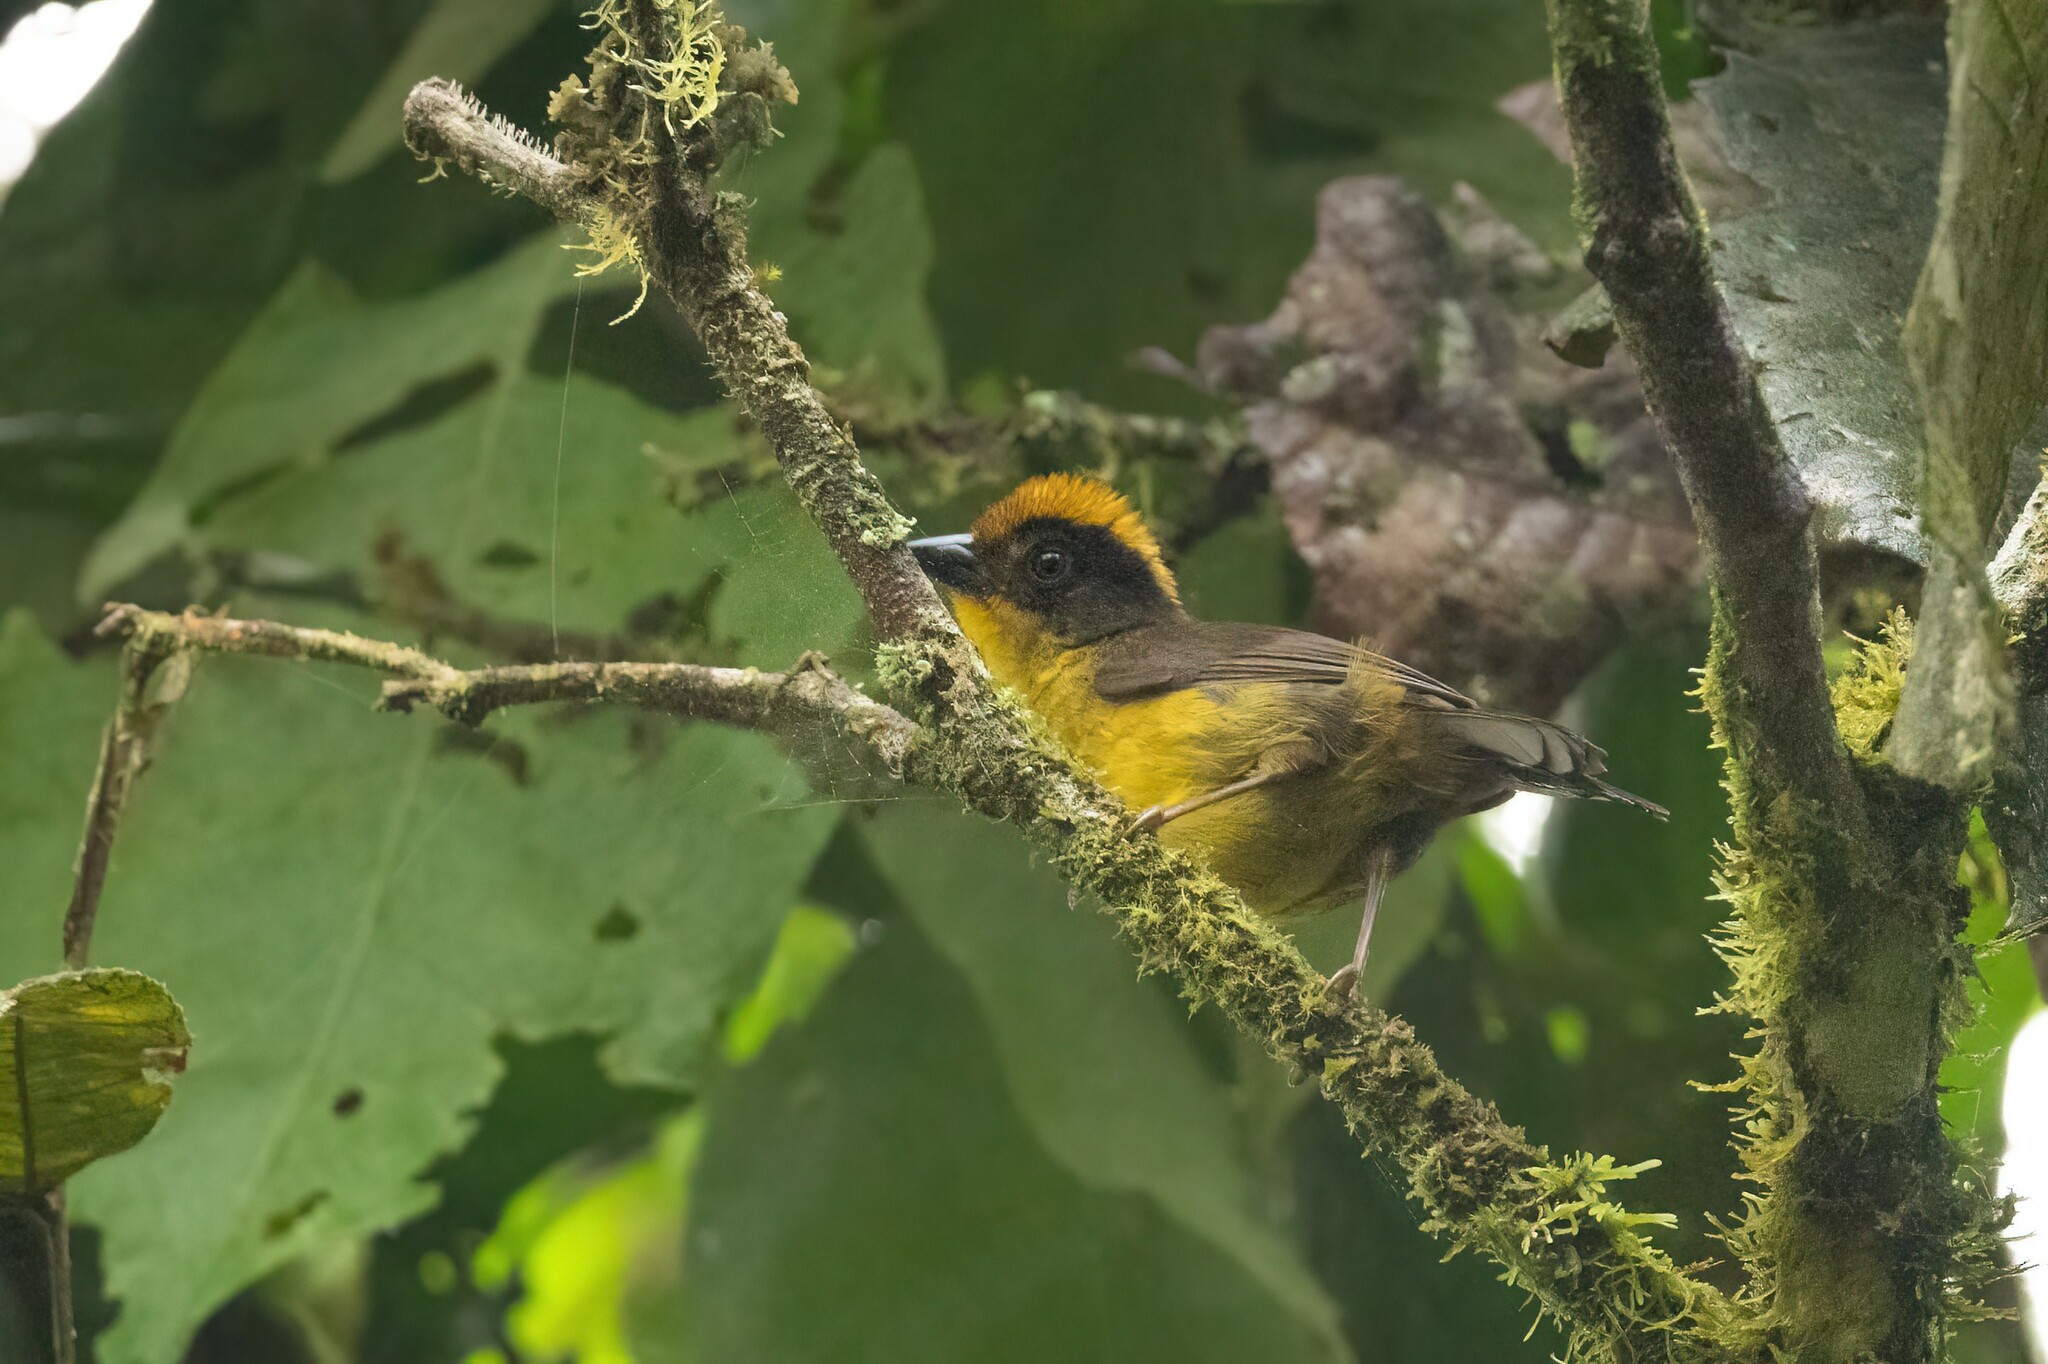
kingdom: Animalia
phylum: Chordata
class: Aves
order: Passeriformes
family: Passerellidae
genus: Atlapetes
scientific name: Atlapetes tricolor
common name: Tricolored brushfinch
